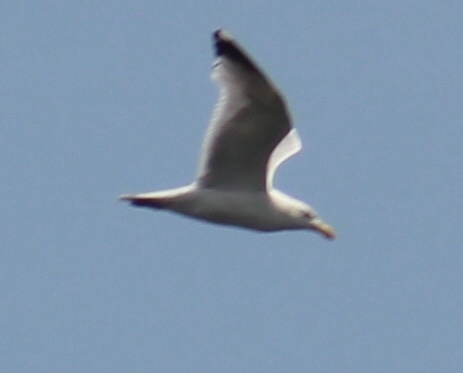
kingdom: Animalia
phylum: Chordata
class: Aves
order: Charadriiformes
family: Laridae
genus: Larus
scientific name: Larus argentatus
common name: Herring gull
